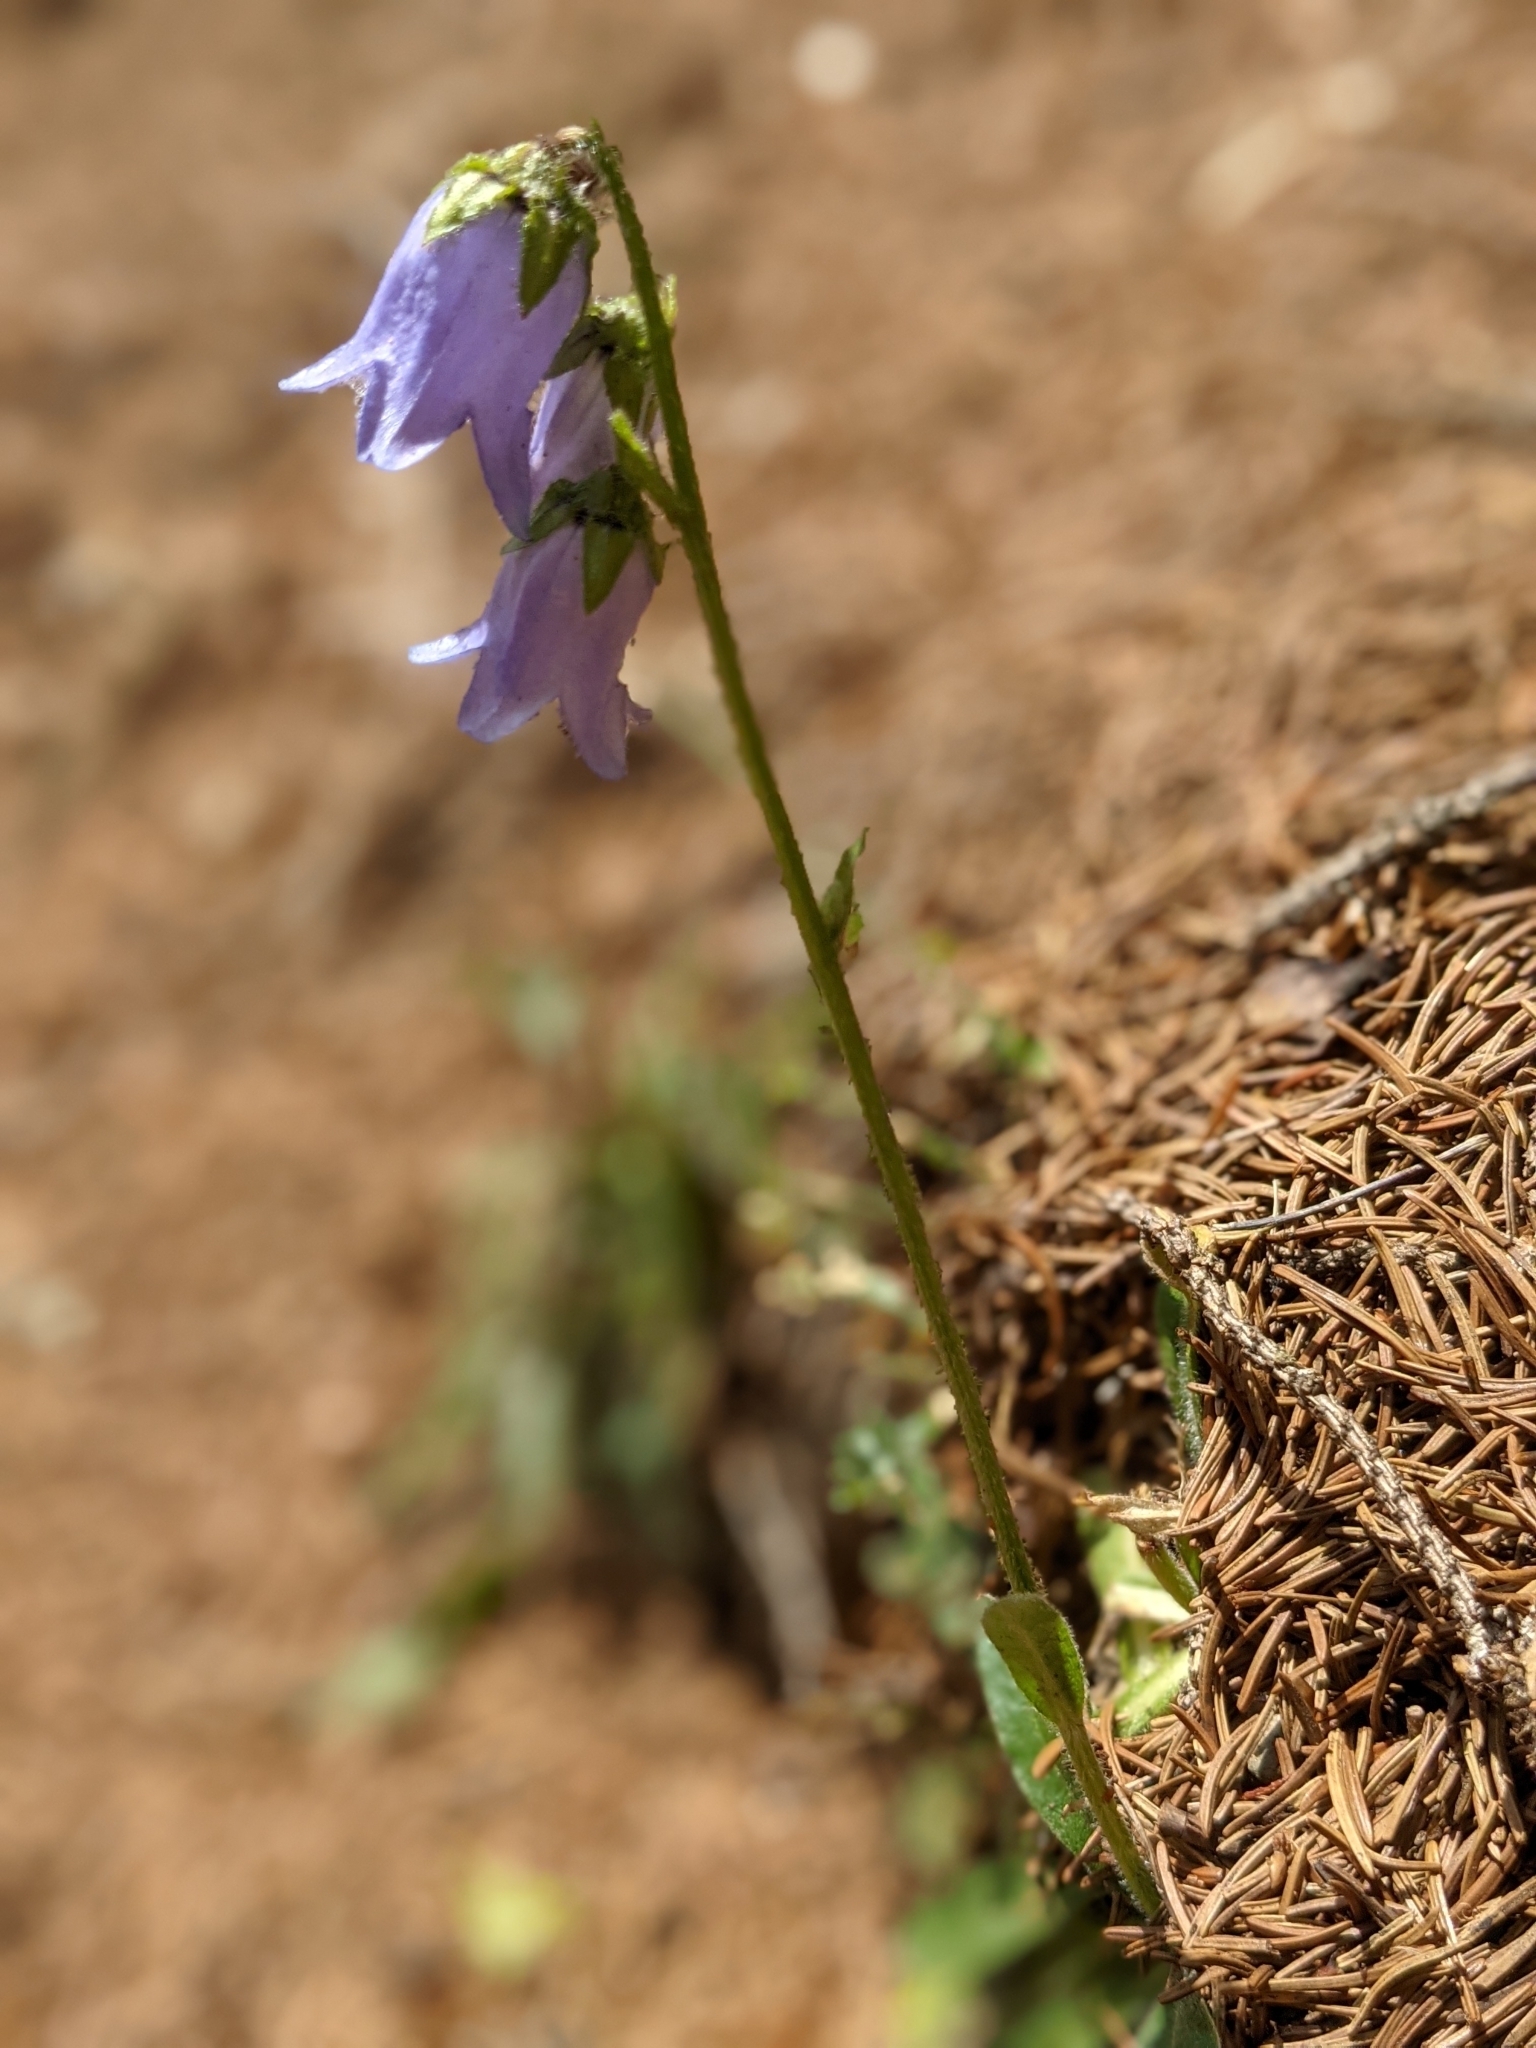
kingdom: Plantae
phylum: Tracheophyta
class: Magnoliopsida
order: Asterales
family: Campanulaceae
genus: Campanula
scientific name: Campanula barbata
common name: Bearded bellflower
